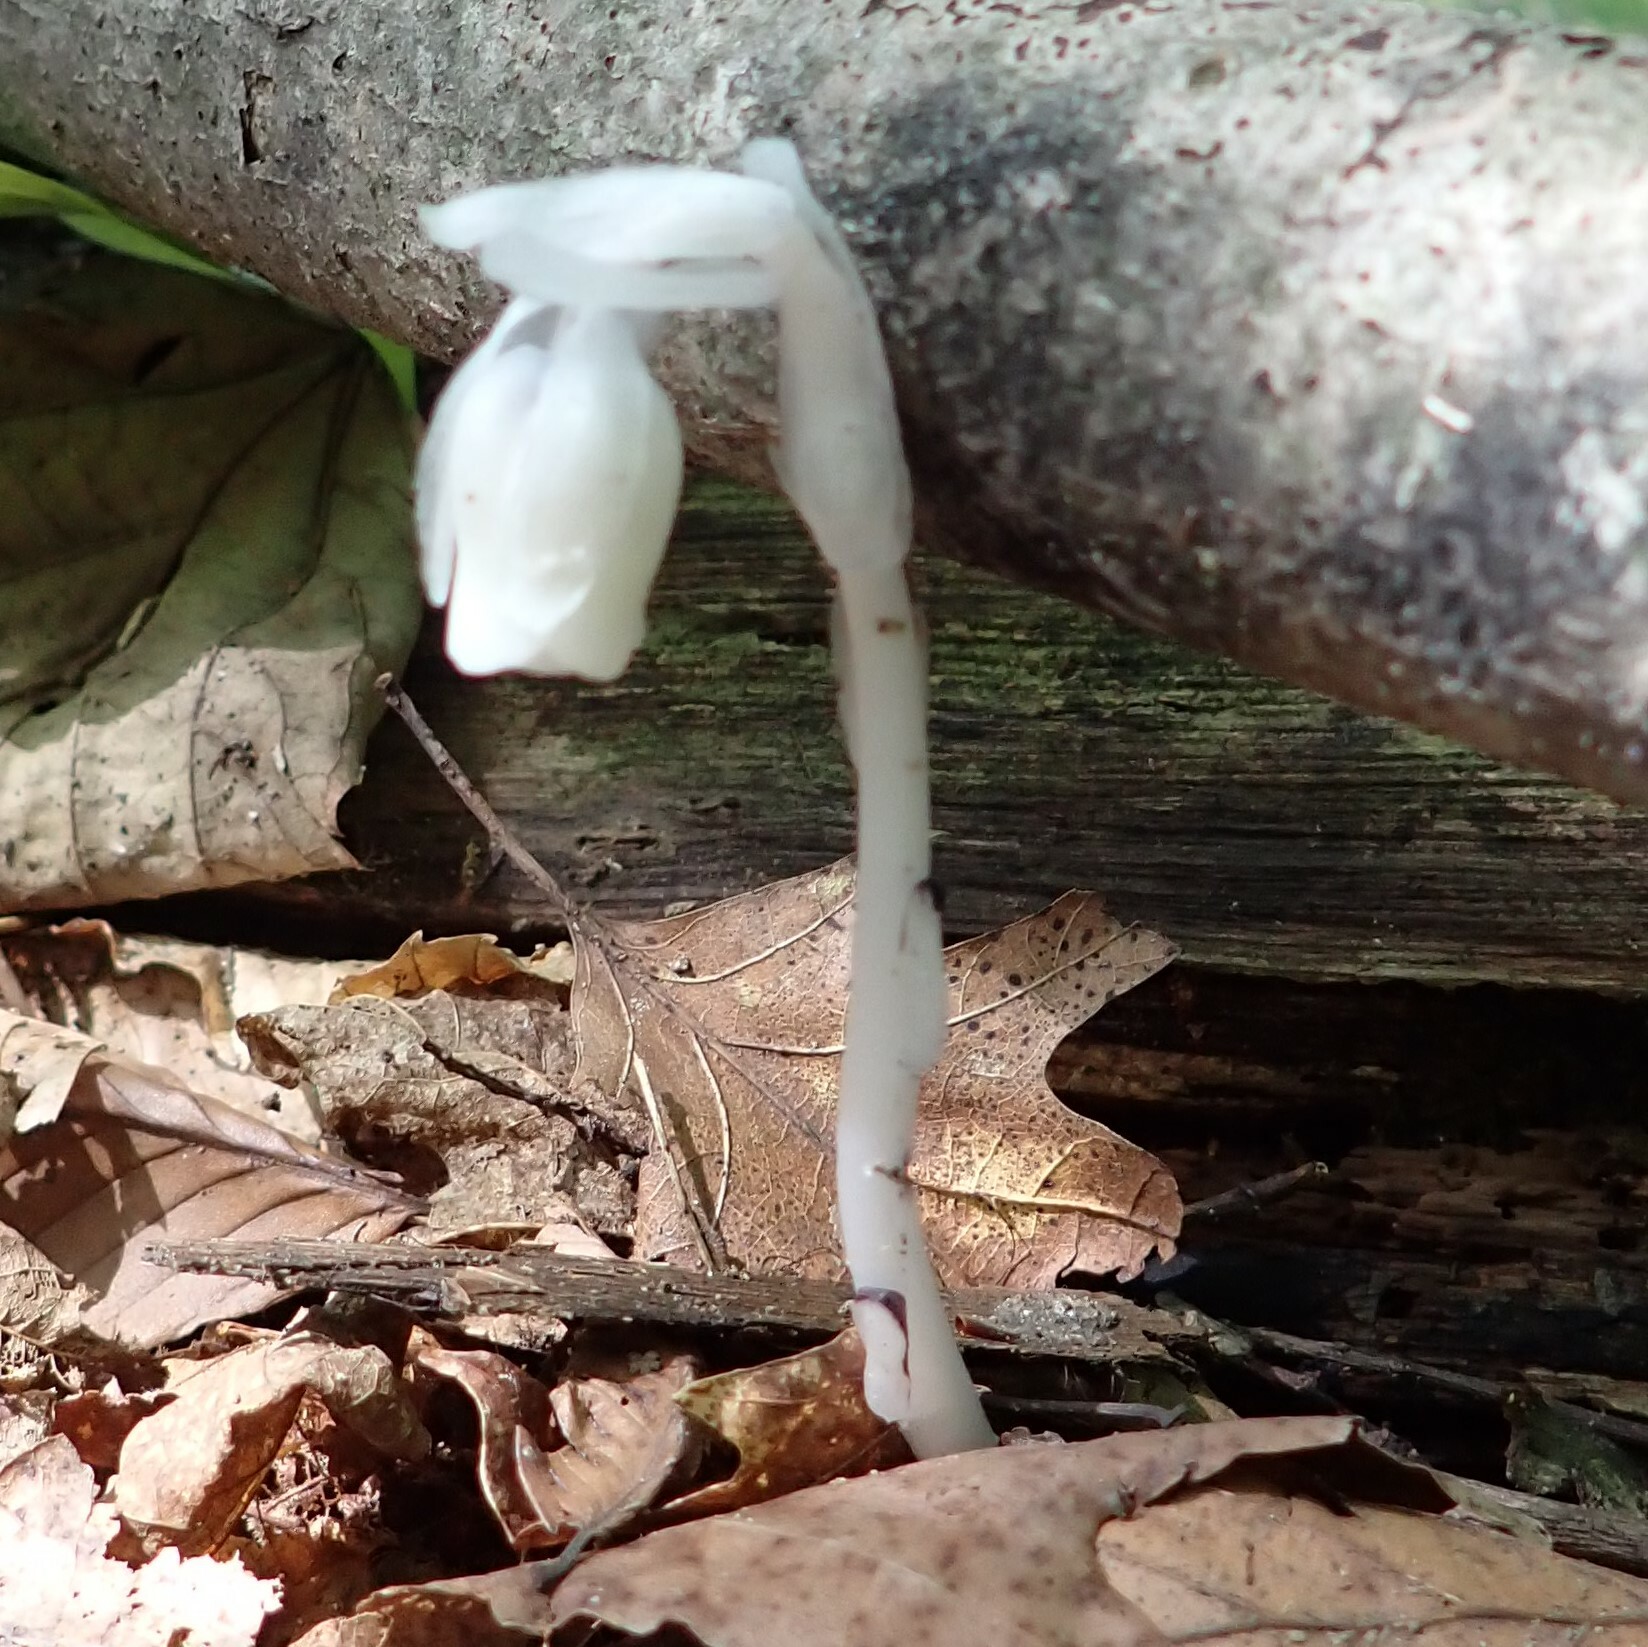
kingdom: Plantae
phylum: Tracheophyta
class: Magnoliopsida
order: Ericales
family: Ericaceae
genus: Monotropa
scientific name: Monotropa uniflora
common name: Convulsion root
